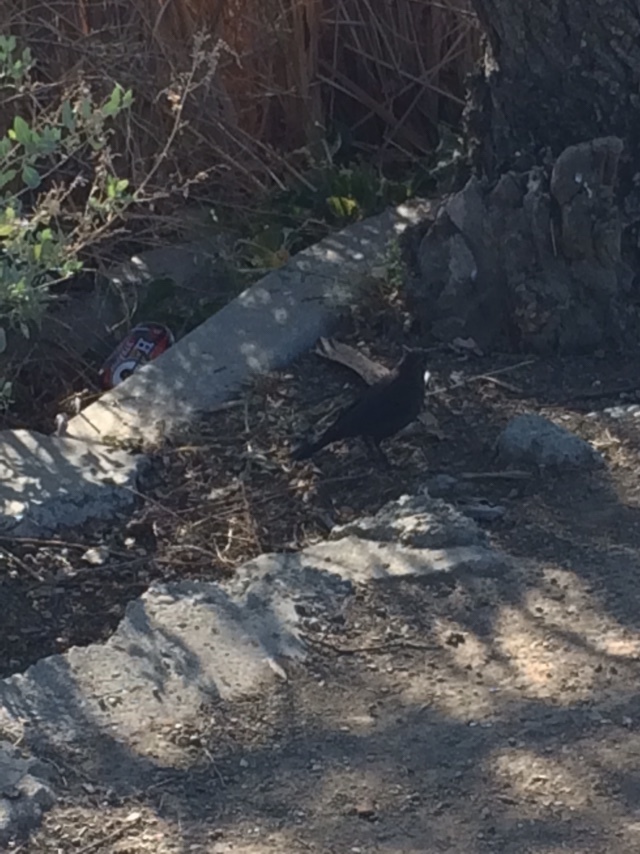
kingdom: Animalia
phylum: Chordata
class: Aves
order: Passeriformes
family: Icteridae
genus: Euphagus
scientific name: Euphagus cyanocephalus
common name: Brewer's blackbird
